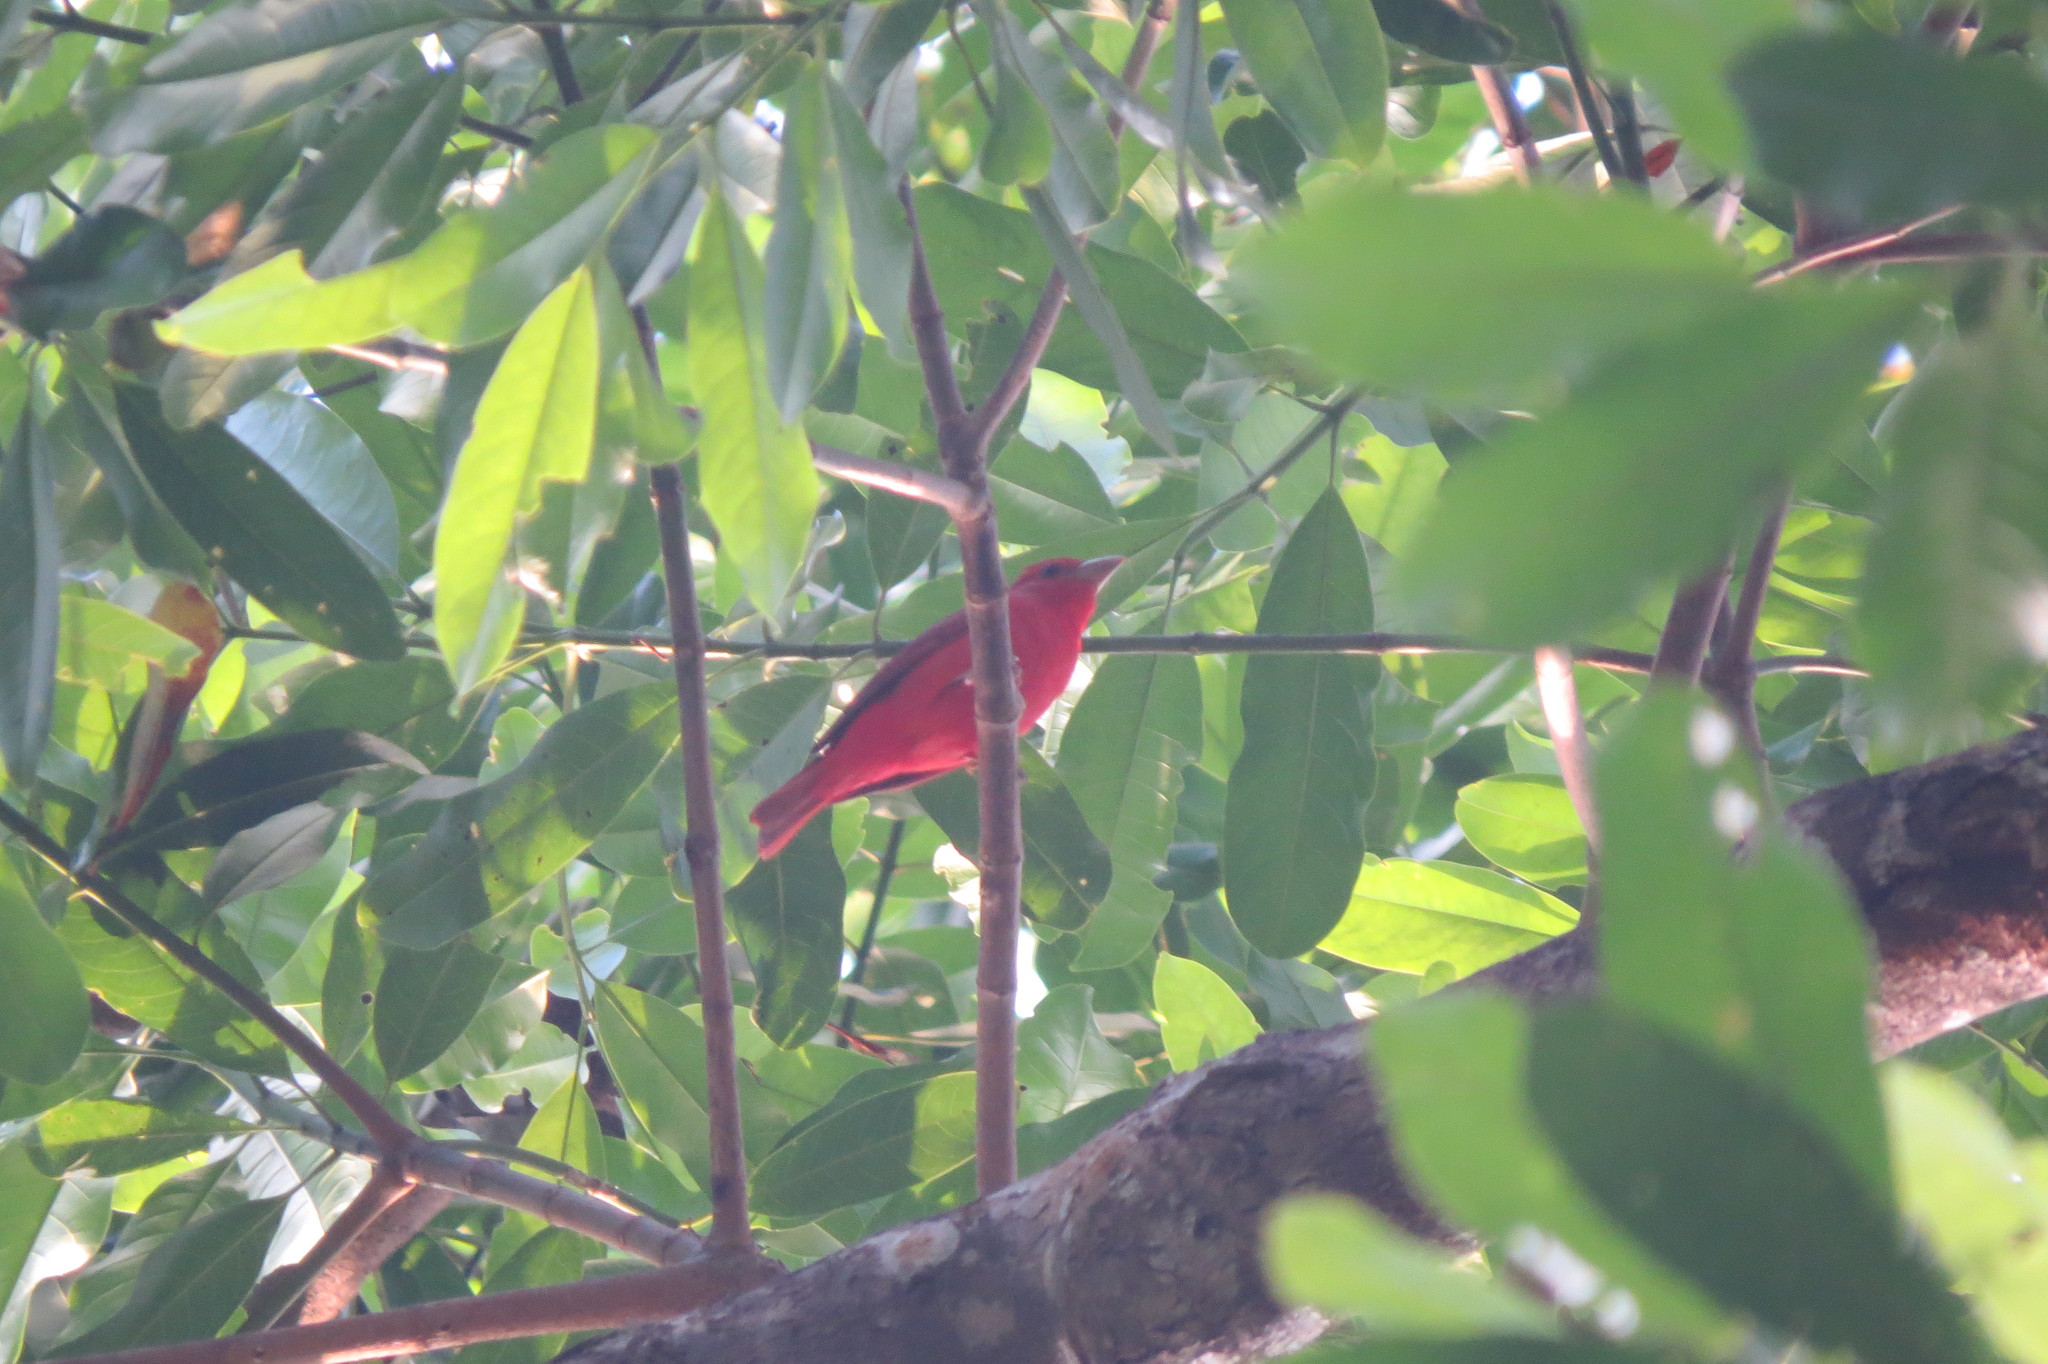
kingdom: Animalia
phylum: Chordata
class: Aves
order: Passeriformes
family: Cardinalidae
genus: Piranga
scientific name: Piranga rubra
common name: Summer tanager
